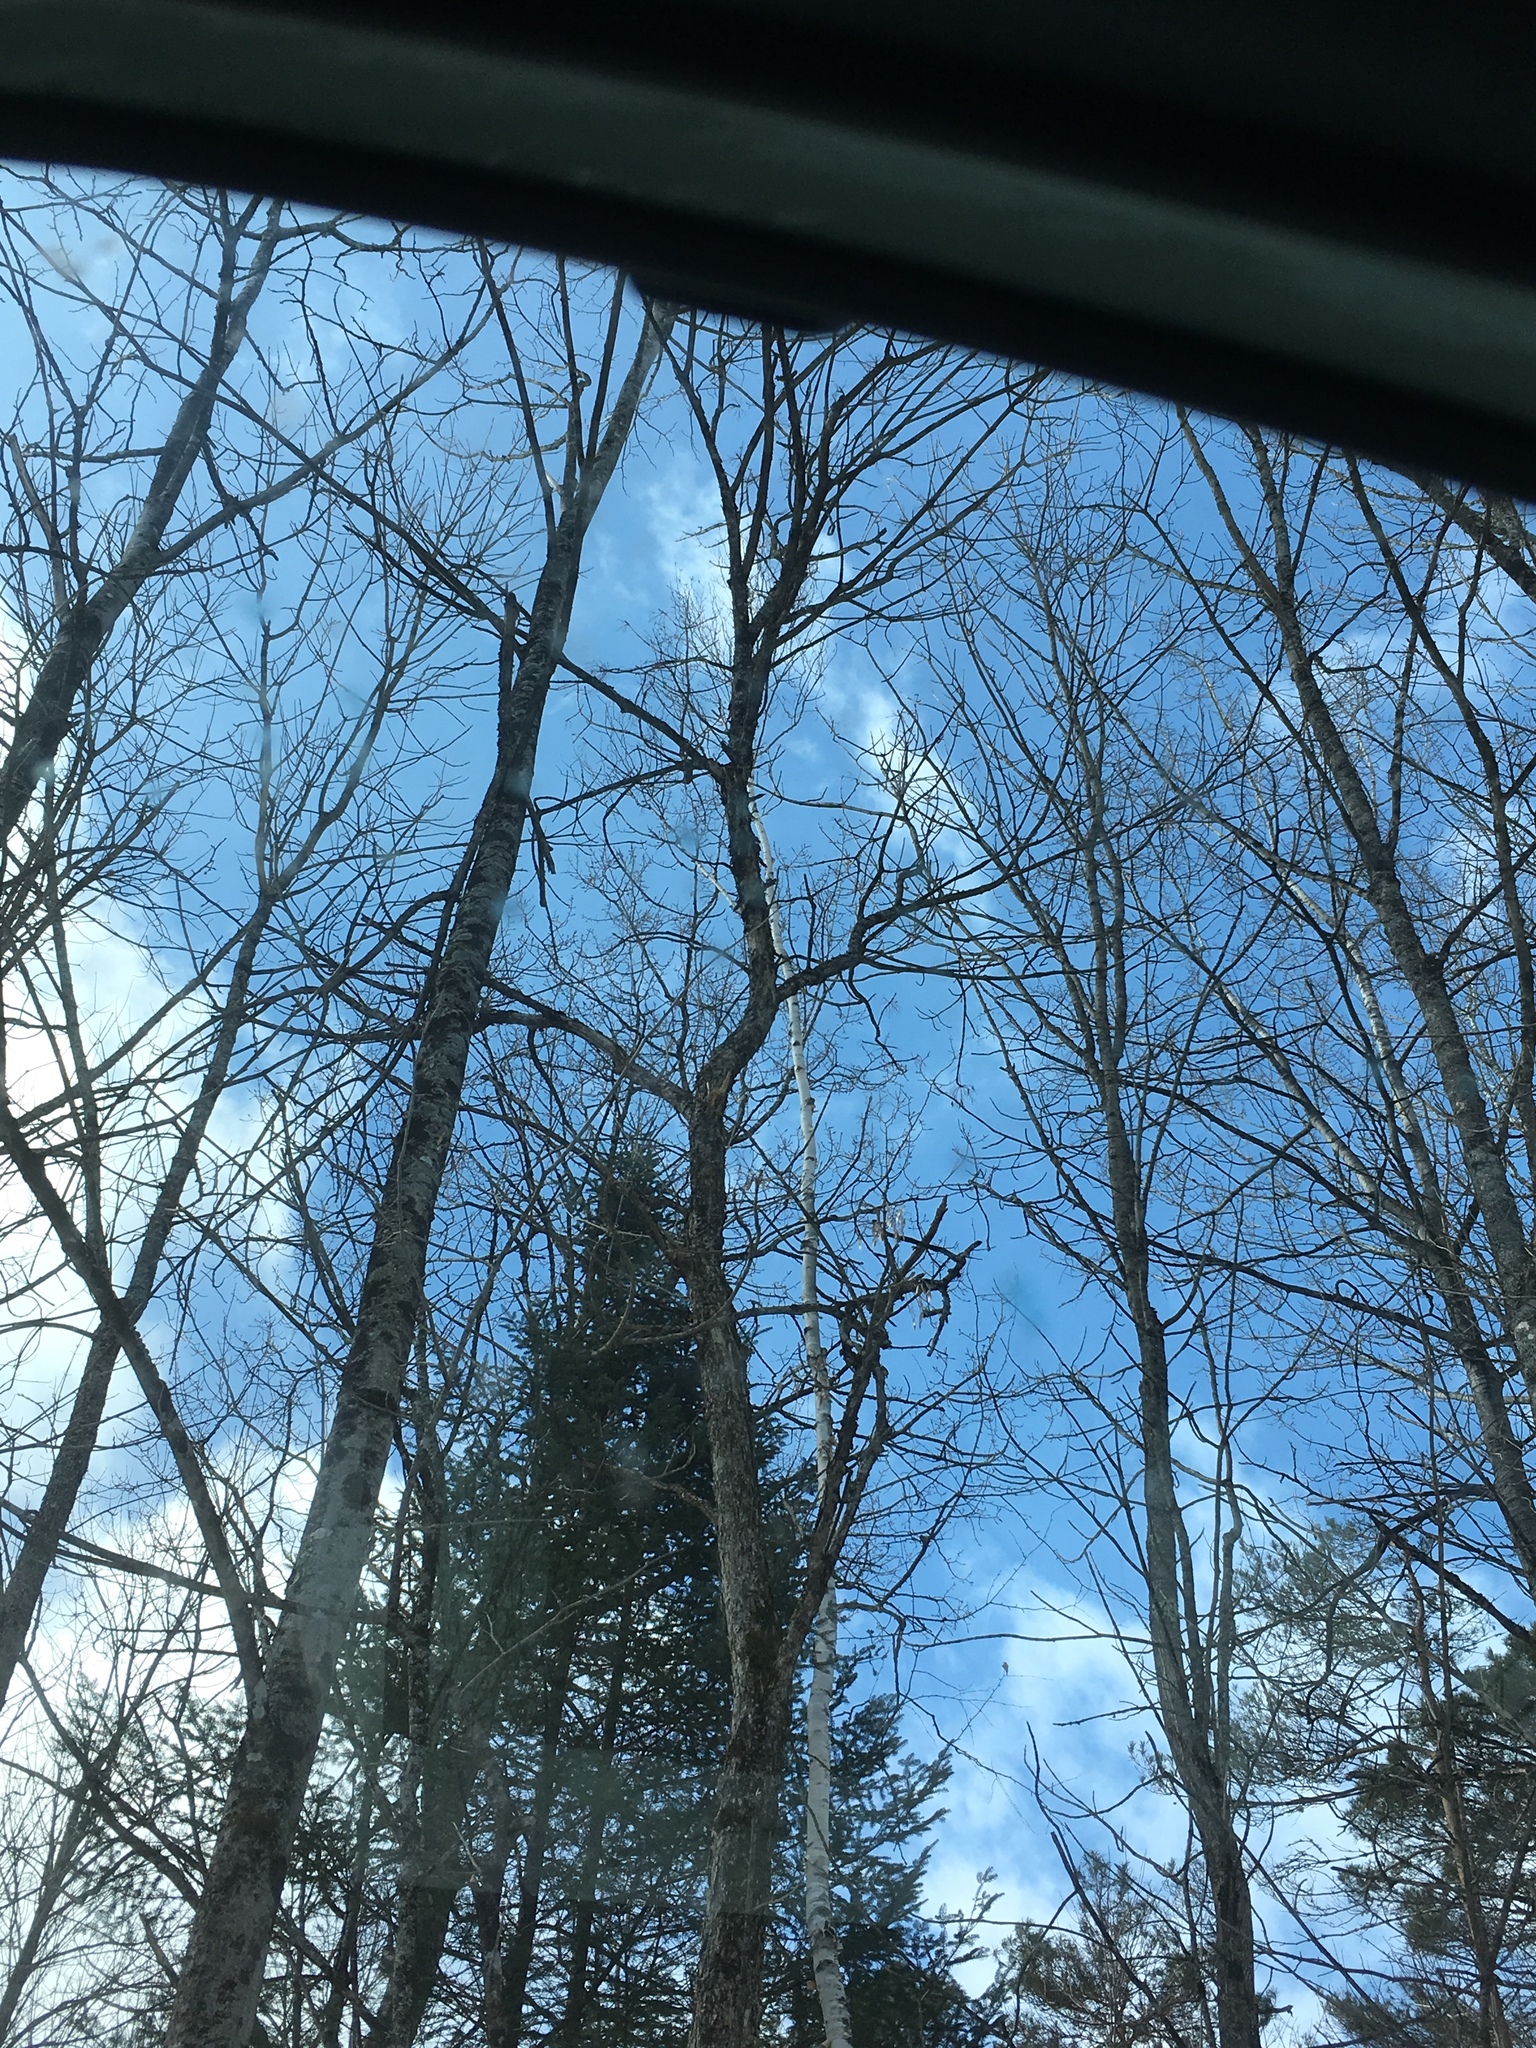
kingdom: Plantae
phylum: Tracheophyta
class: Magnoliopsida
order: Fagales
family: Betulaceae
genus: Betula
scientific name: Betula papyrifera
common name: Paper birch
